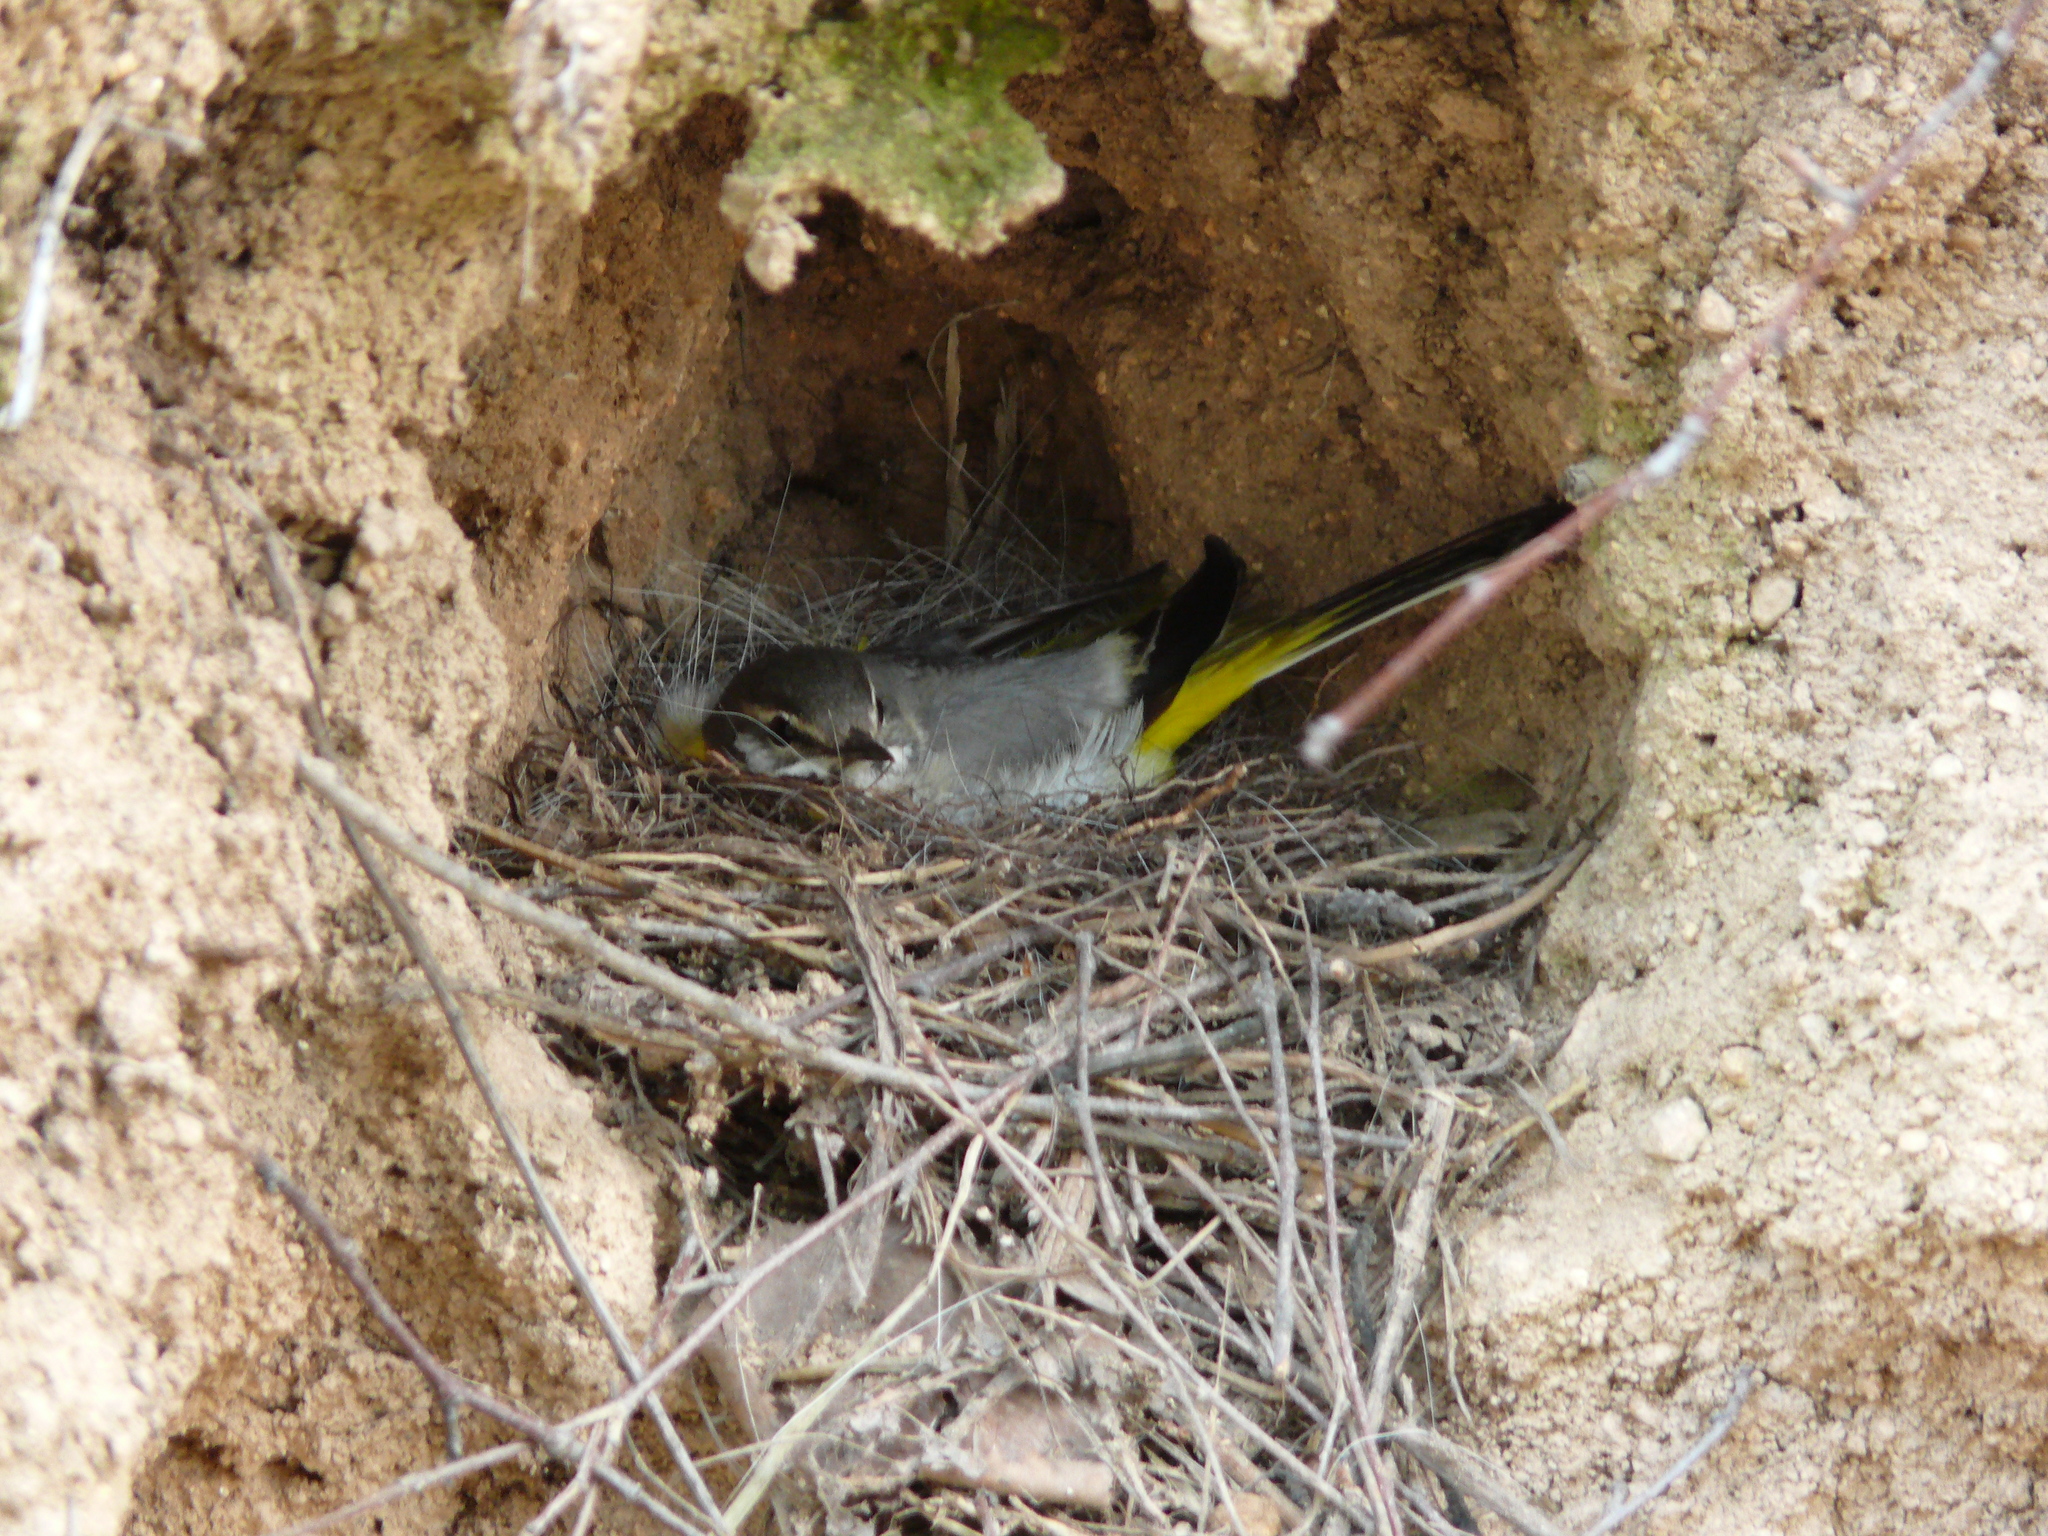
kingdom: Animalia
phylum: Chordata
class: Aves
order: Passeriformes
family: Motacillidae
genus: Motacilla
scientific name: Motacilla cinerea
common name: Grey wagtail
